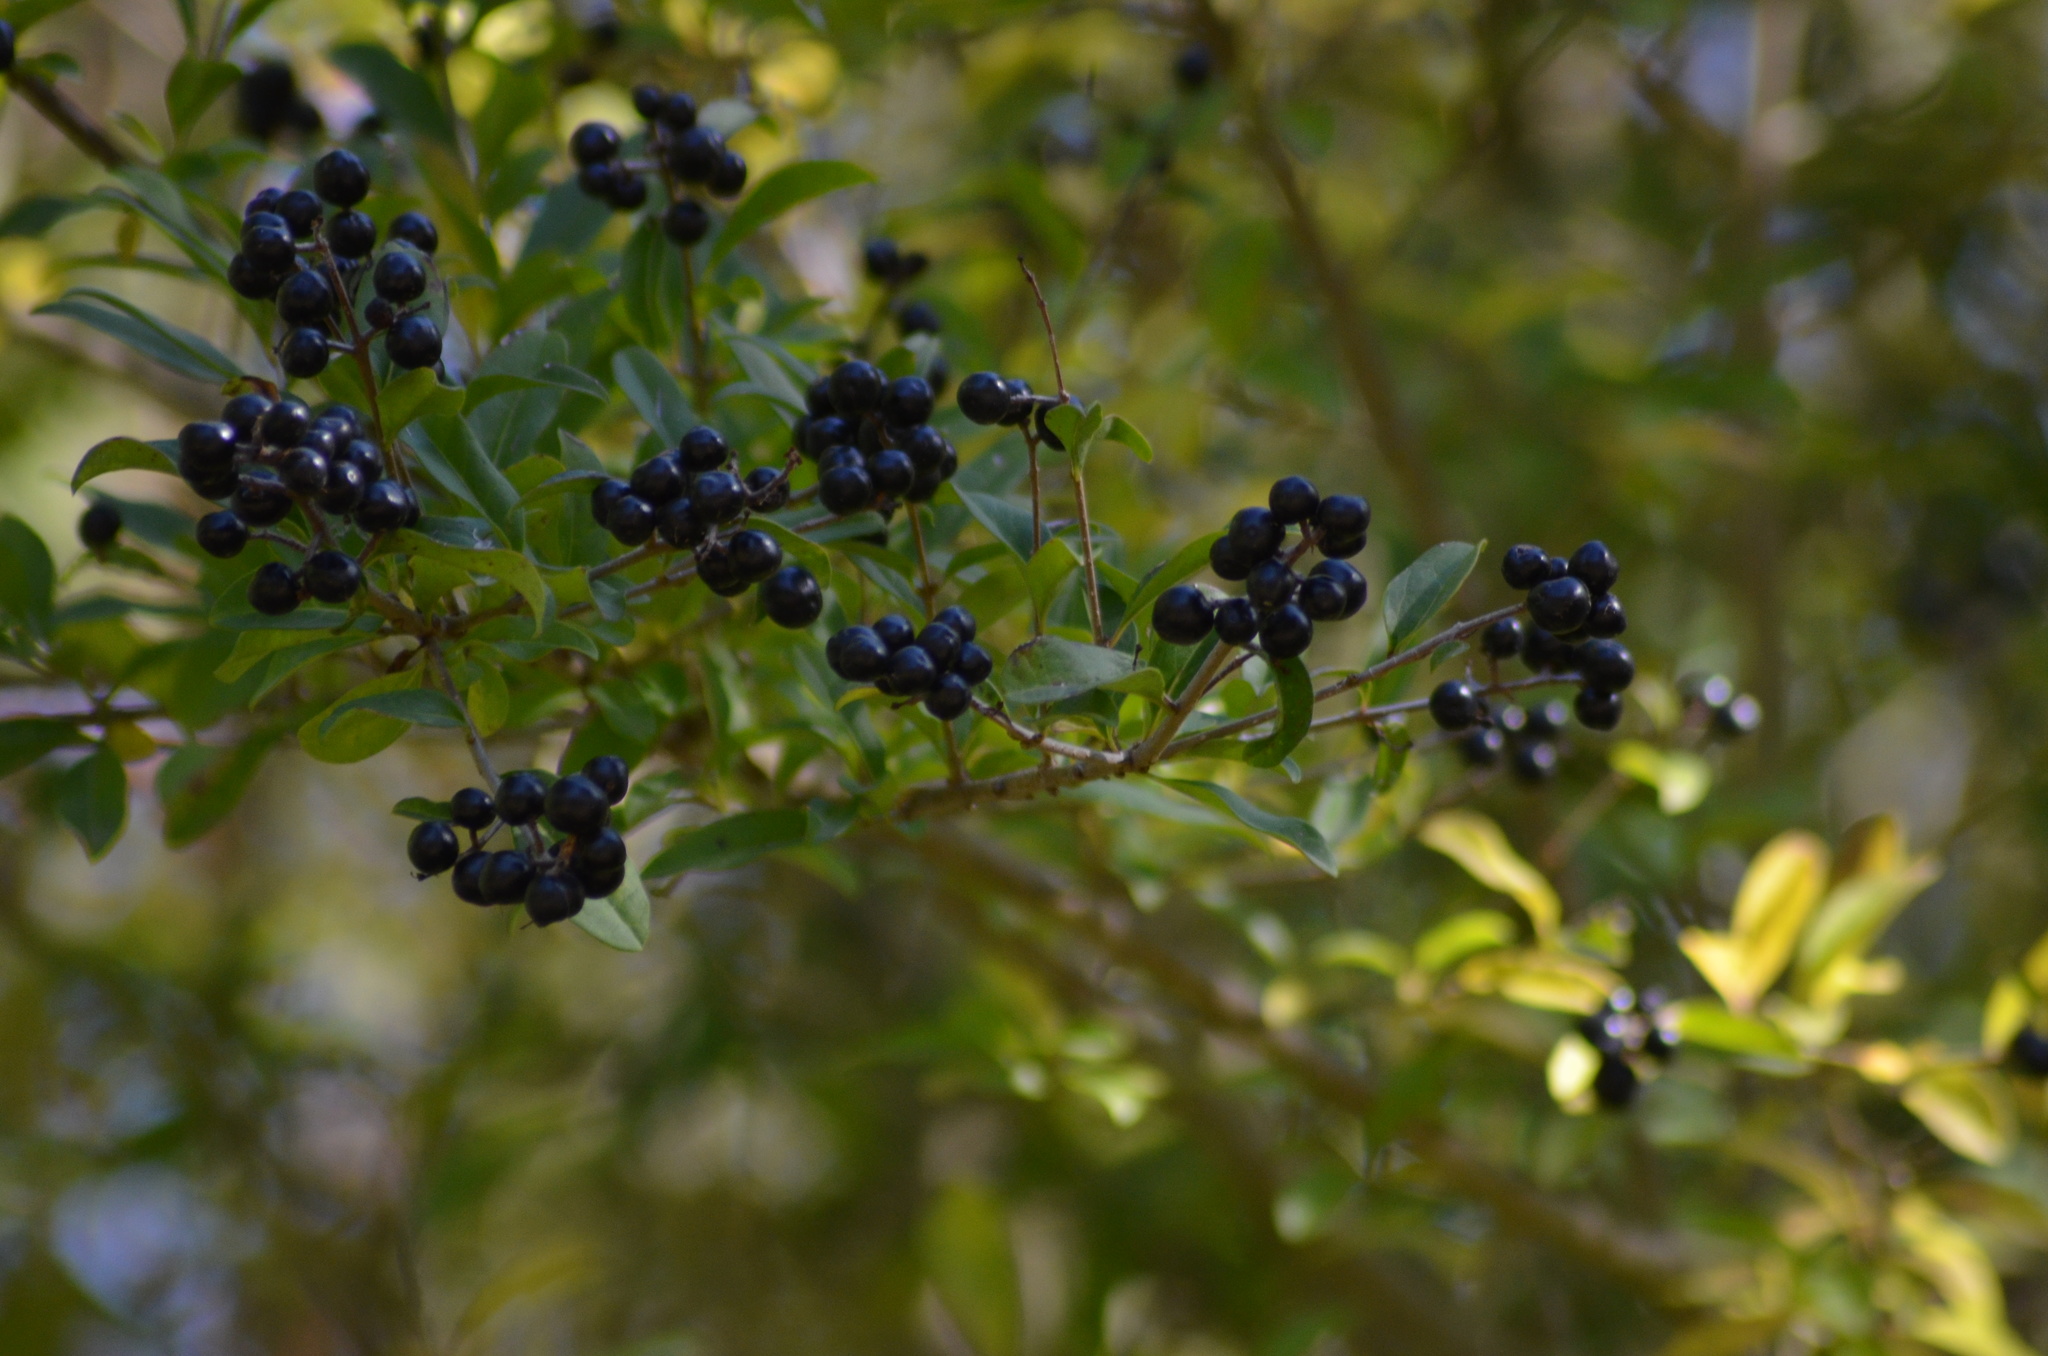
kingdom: Plantae
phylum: Tracheophyta
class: Magnoliopsida
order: Lamiales
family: Oleaceae
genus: Ligustrum
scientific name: Ligustrum vulgare
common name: Wild privet
